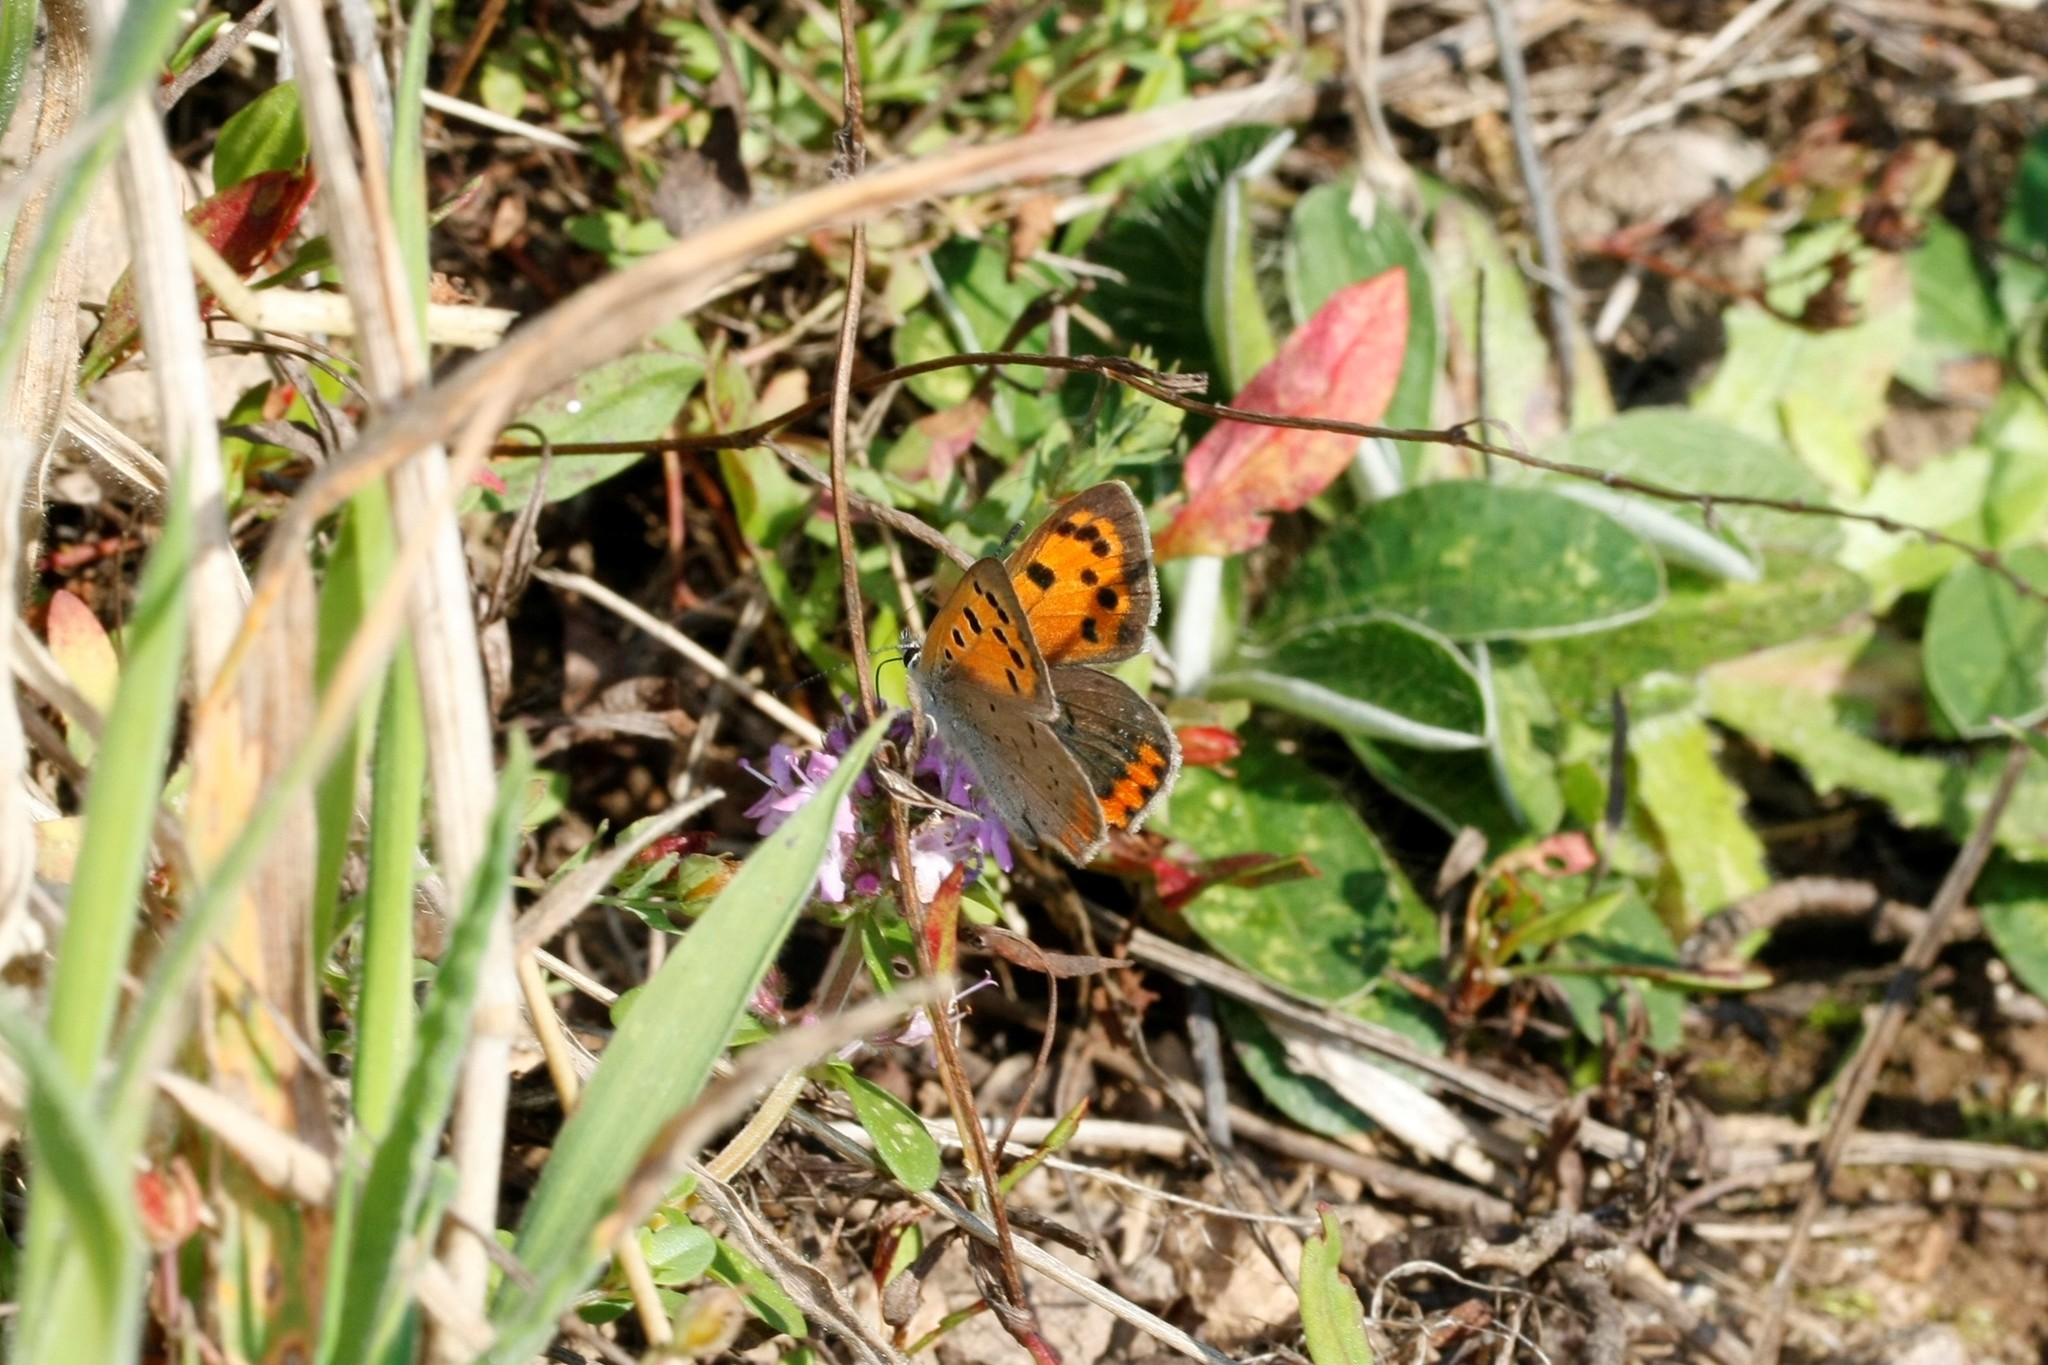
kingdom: Animalia
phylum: Arthropoda
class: Insecta
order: Lepidoptera
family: Lycaenidae
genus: Lycaena
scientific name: Lycaena phlaeas
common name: Small copper
